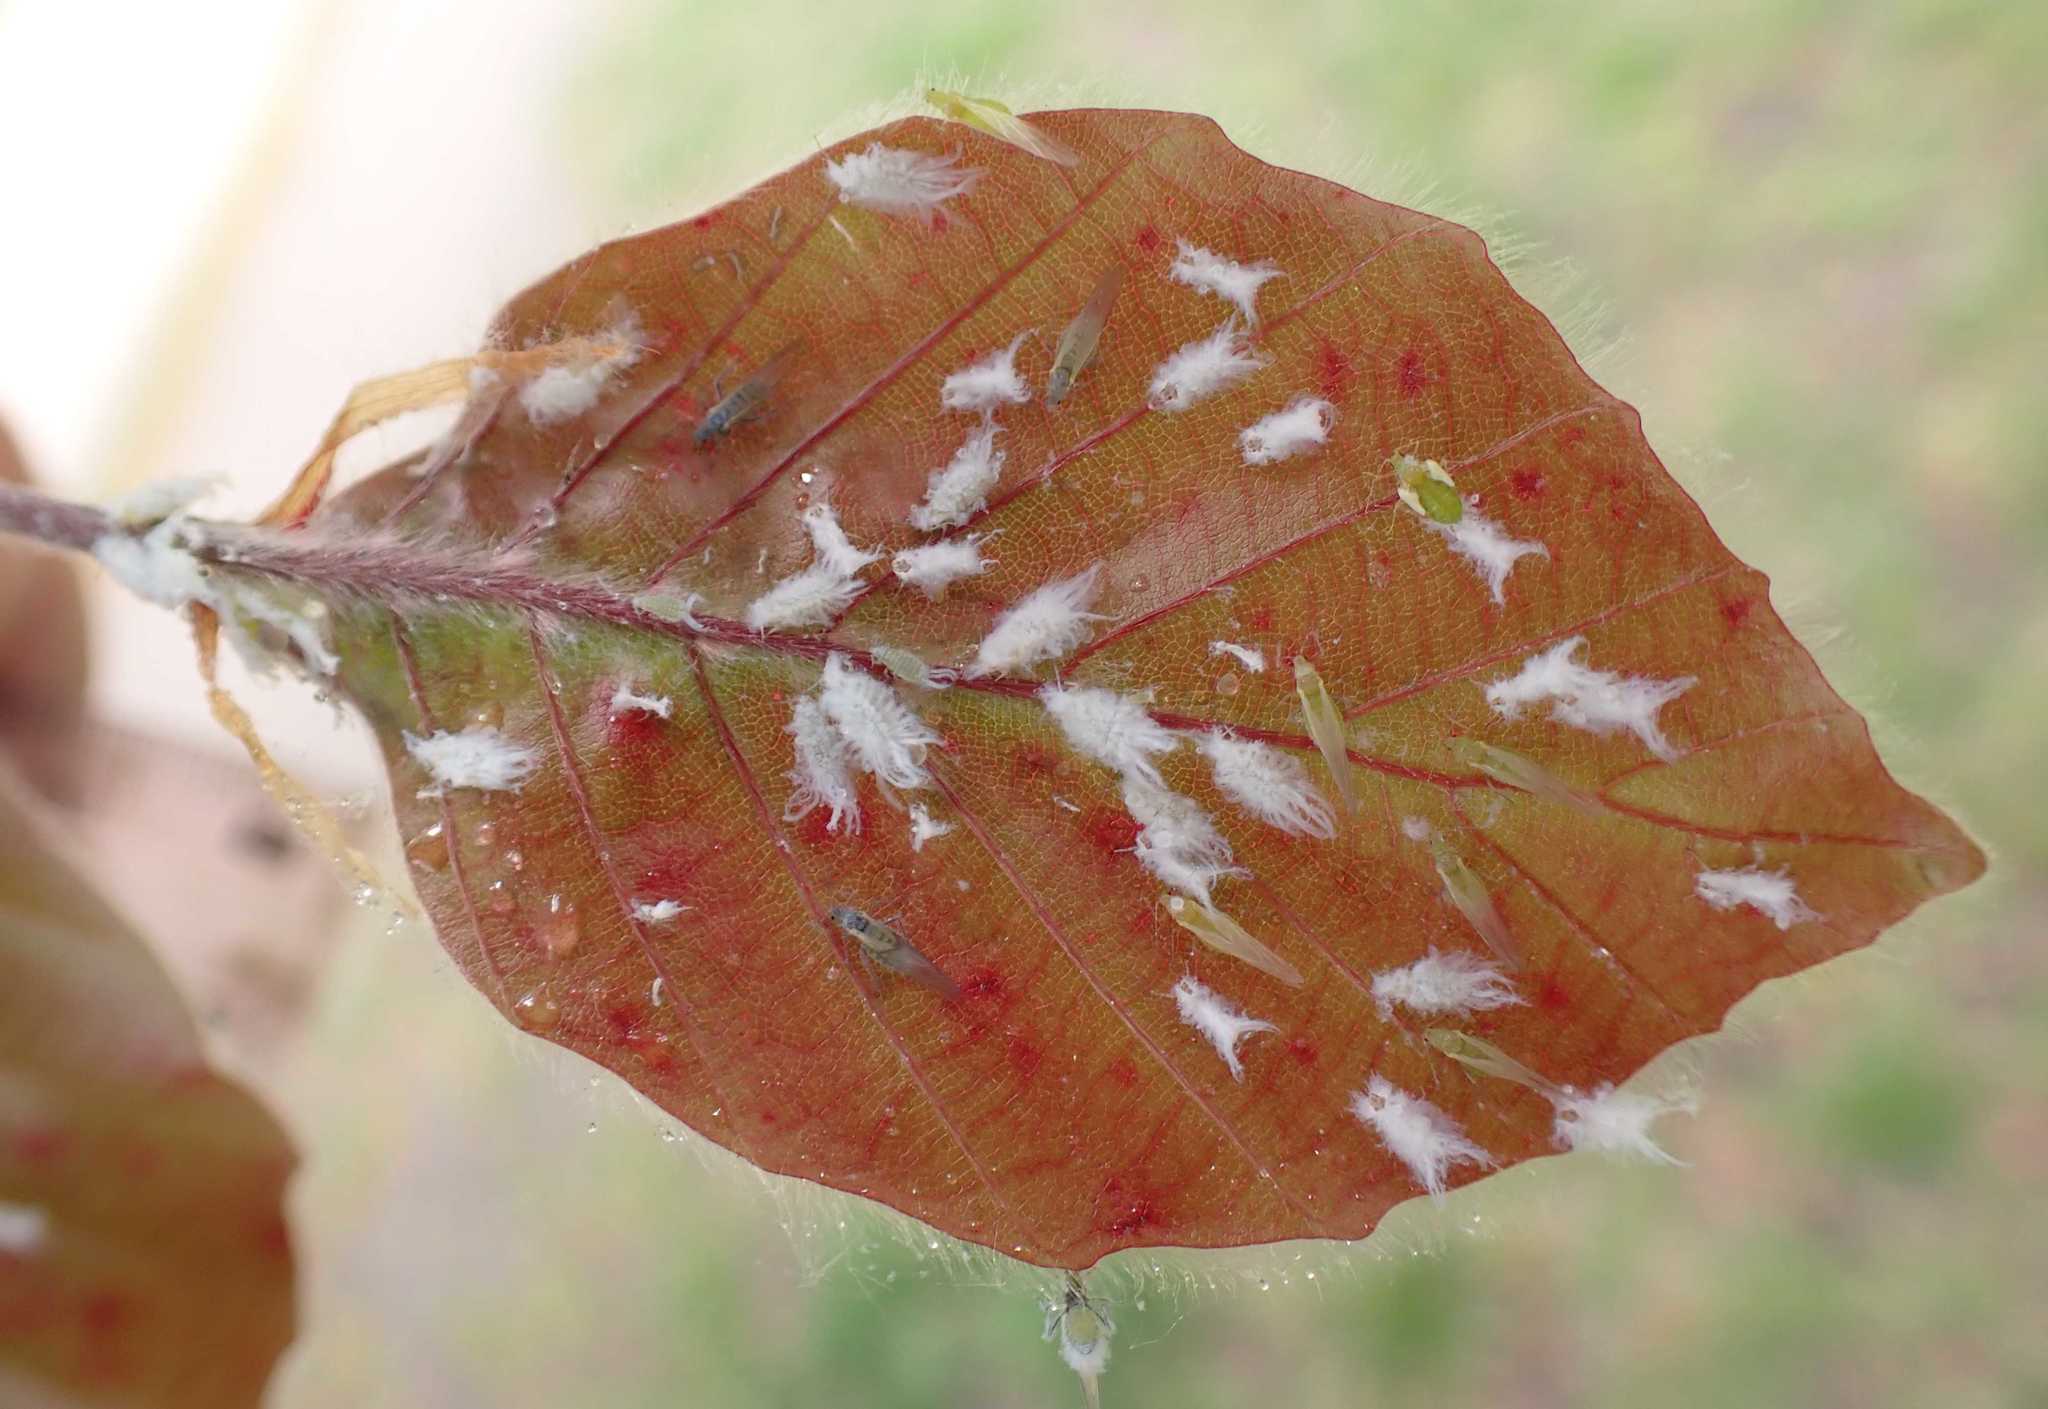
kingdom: Animalia
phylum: Arthropoda
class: Insecta
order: Hemiptera
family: Aphididae
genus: Phyllaphis
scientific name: Phyllaphis fagi
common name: Beech aphid
